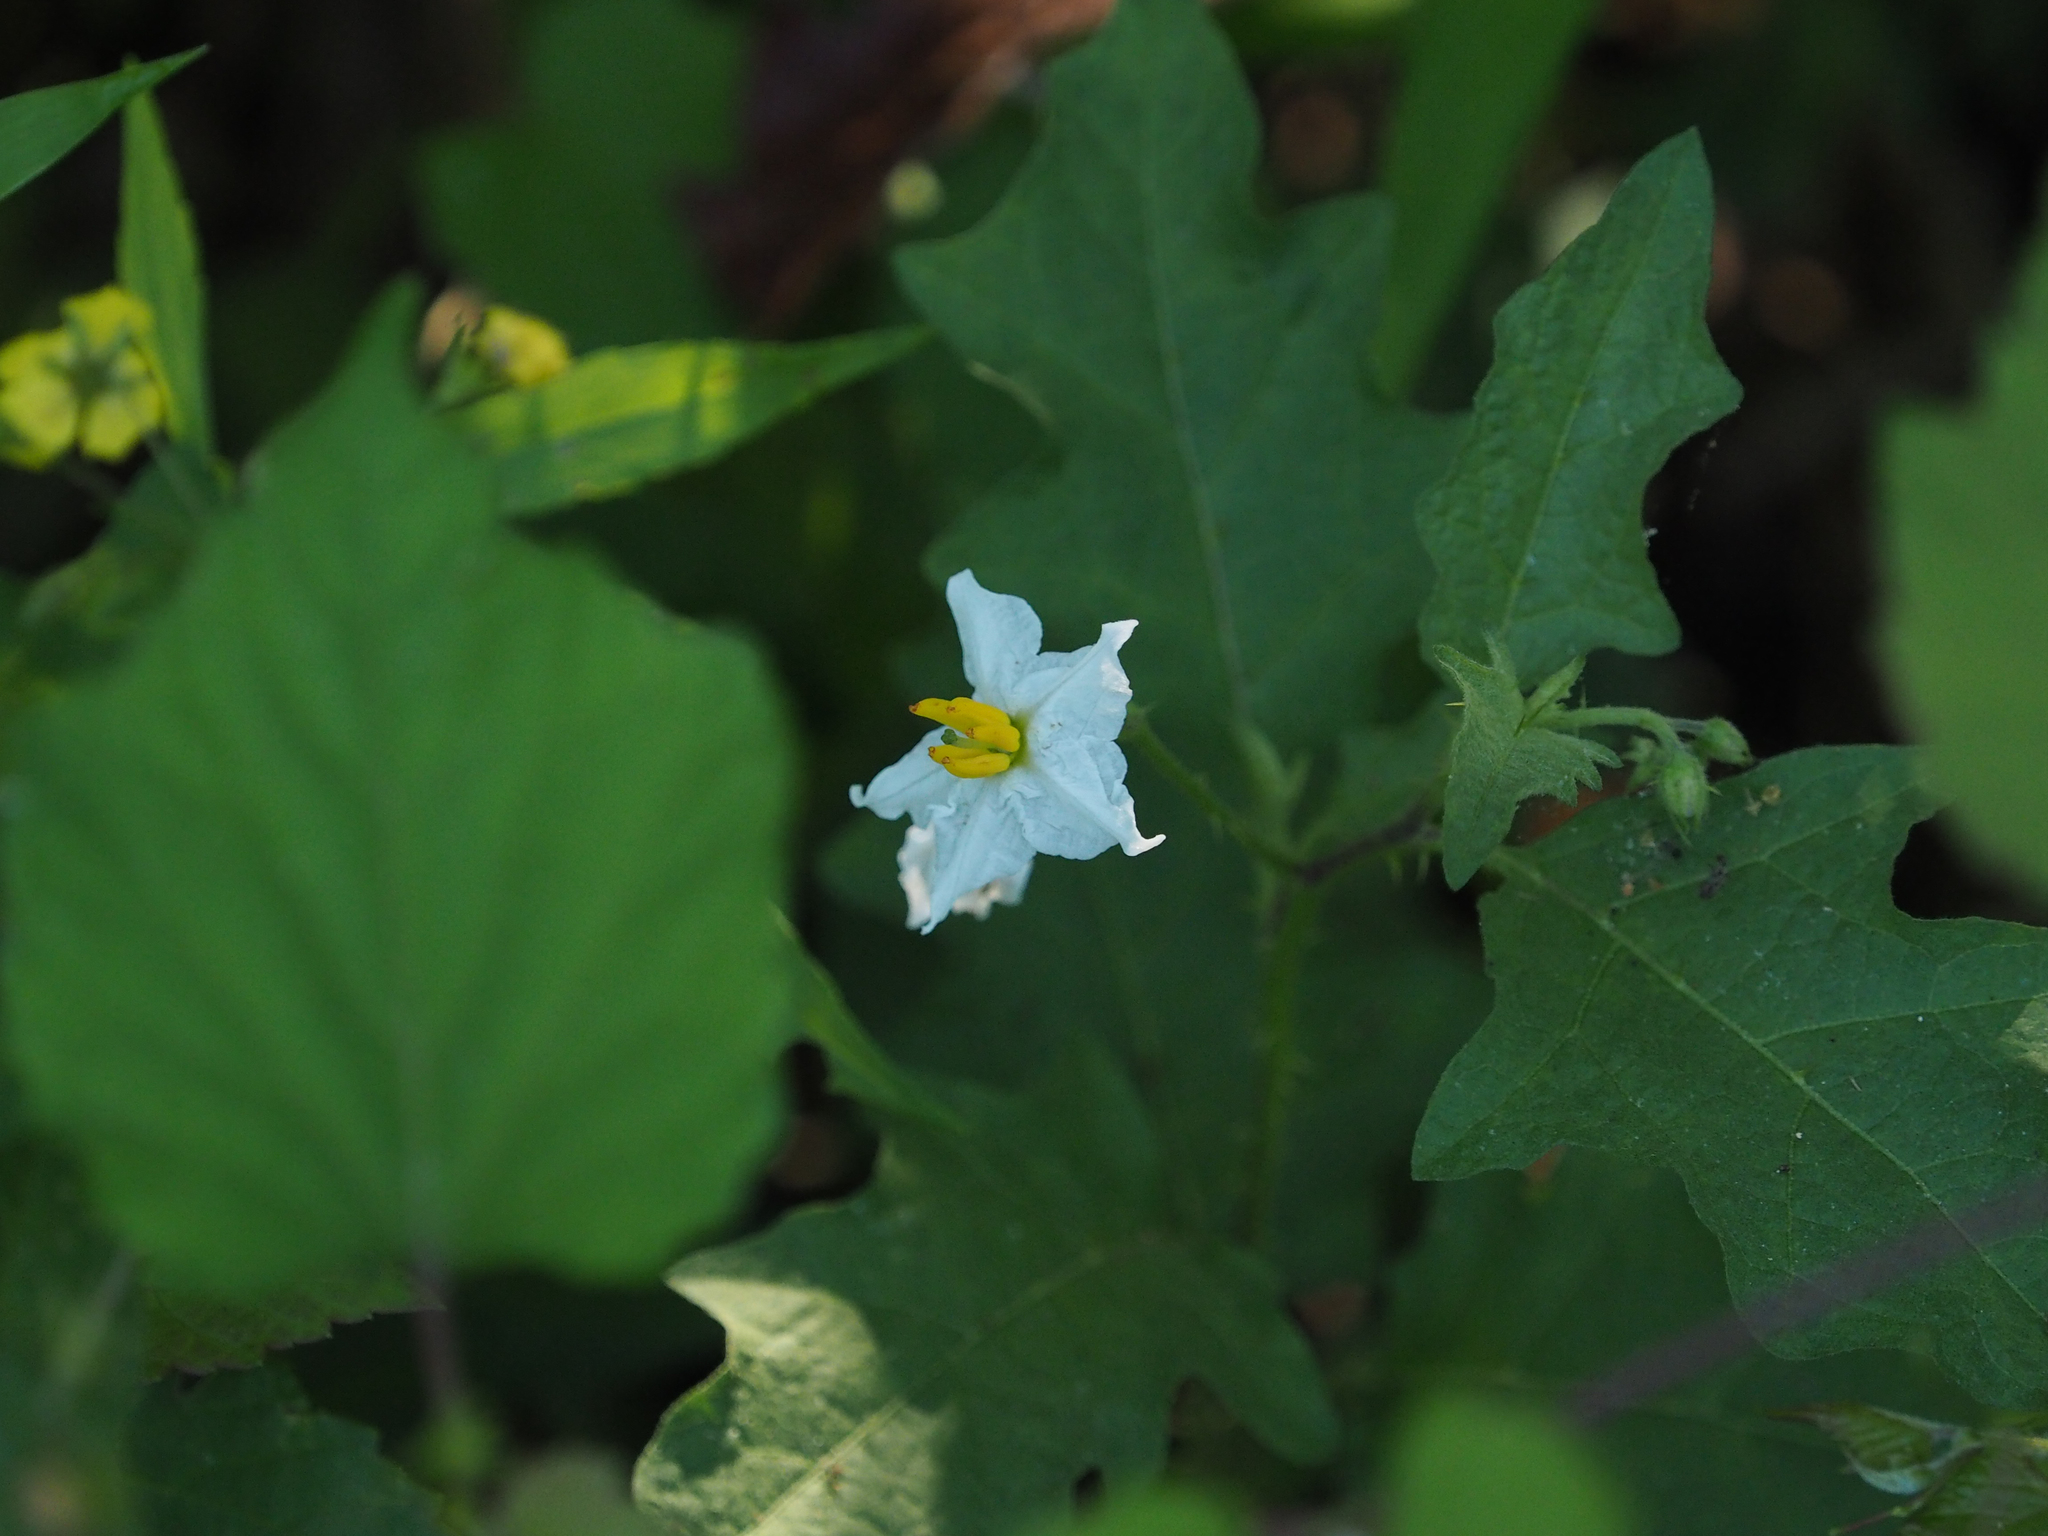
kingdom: Plantae
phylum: Tracheophyta
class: Magnoliopsida
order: Solanales
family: Solanaceae
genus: Solanum
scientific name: Solanum carolinense
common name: Horse-nettle
